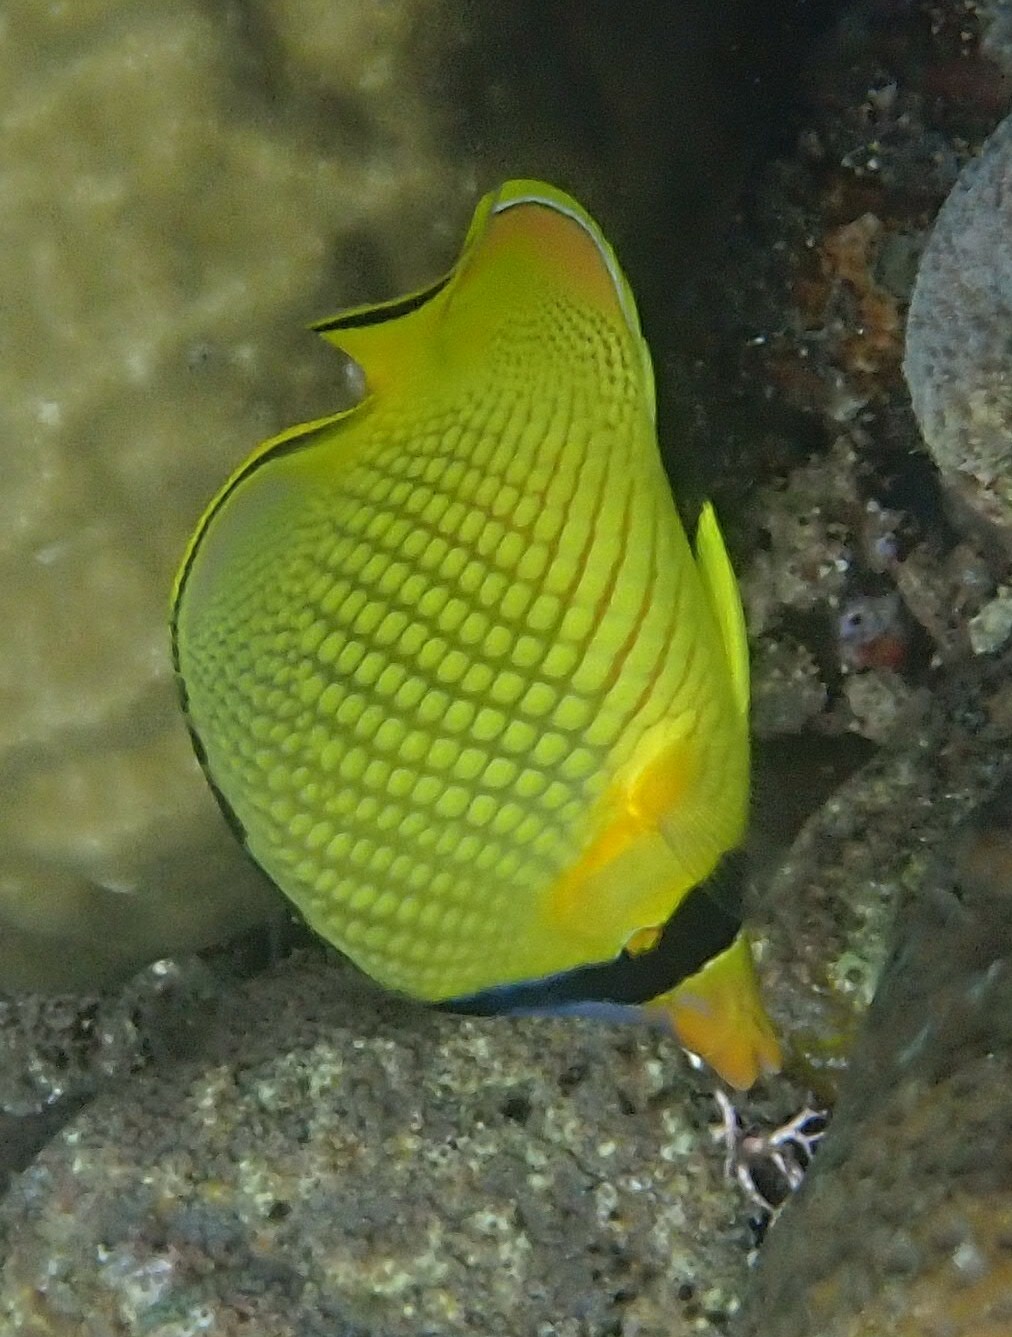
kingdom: Animalia
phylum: Chordata
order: Perciformes
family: Chaetodontidae
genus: Chaetodon
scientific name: Chaetodon rafflesii
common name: Latticed butterflyfish
